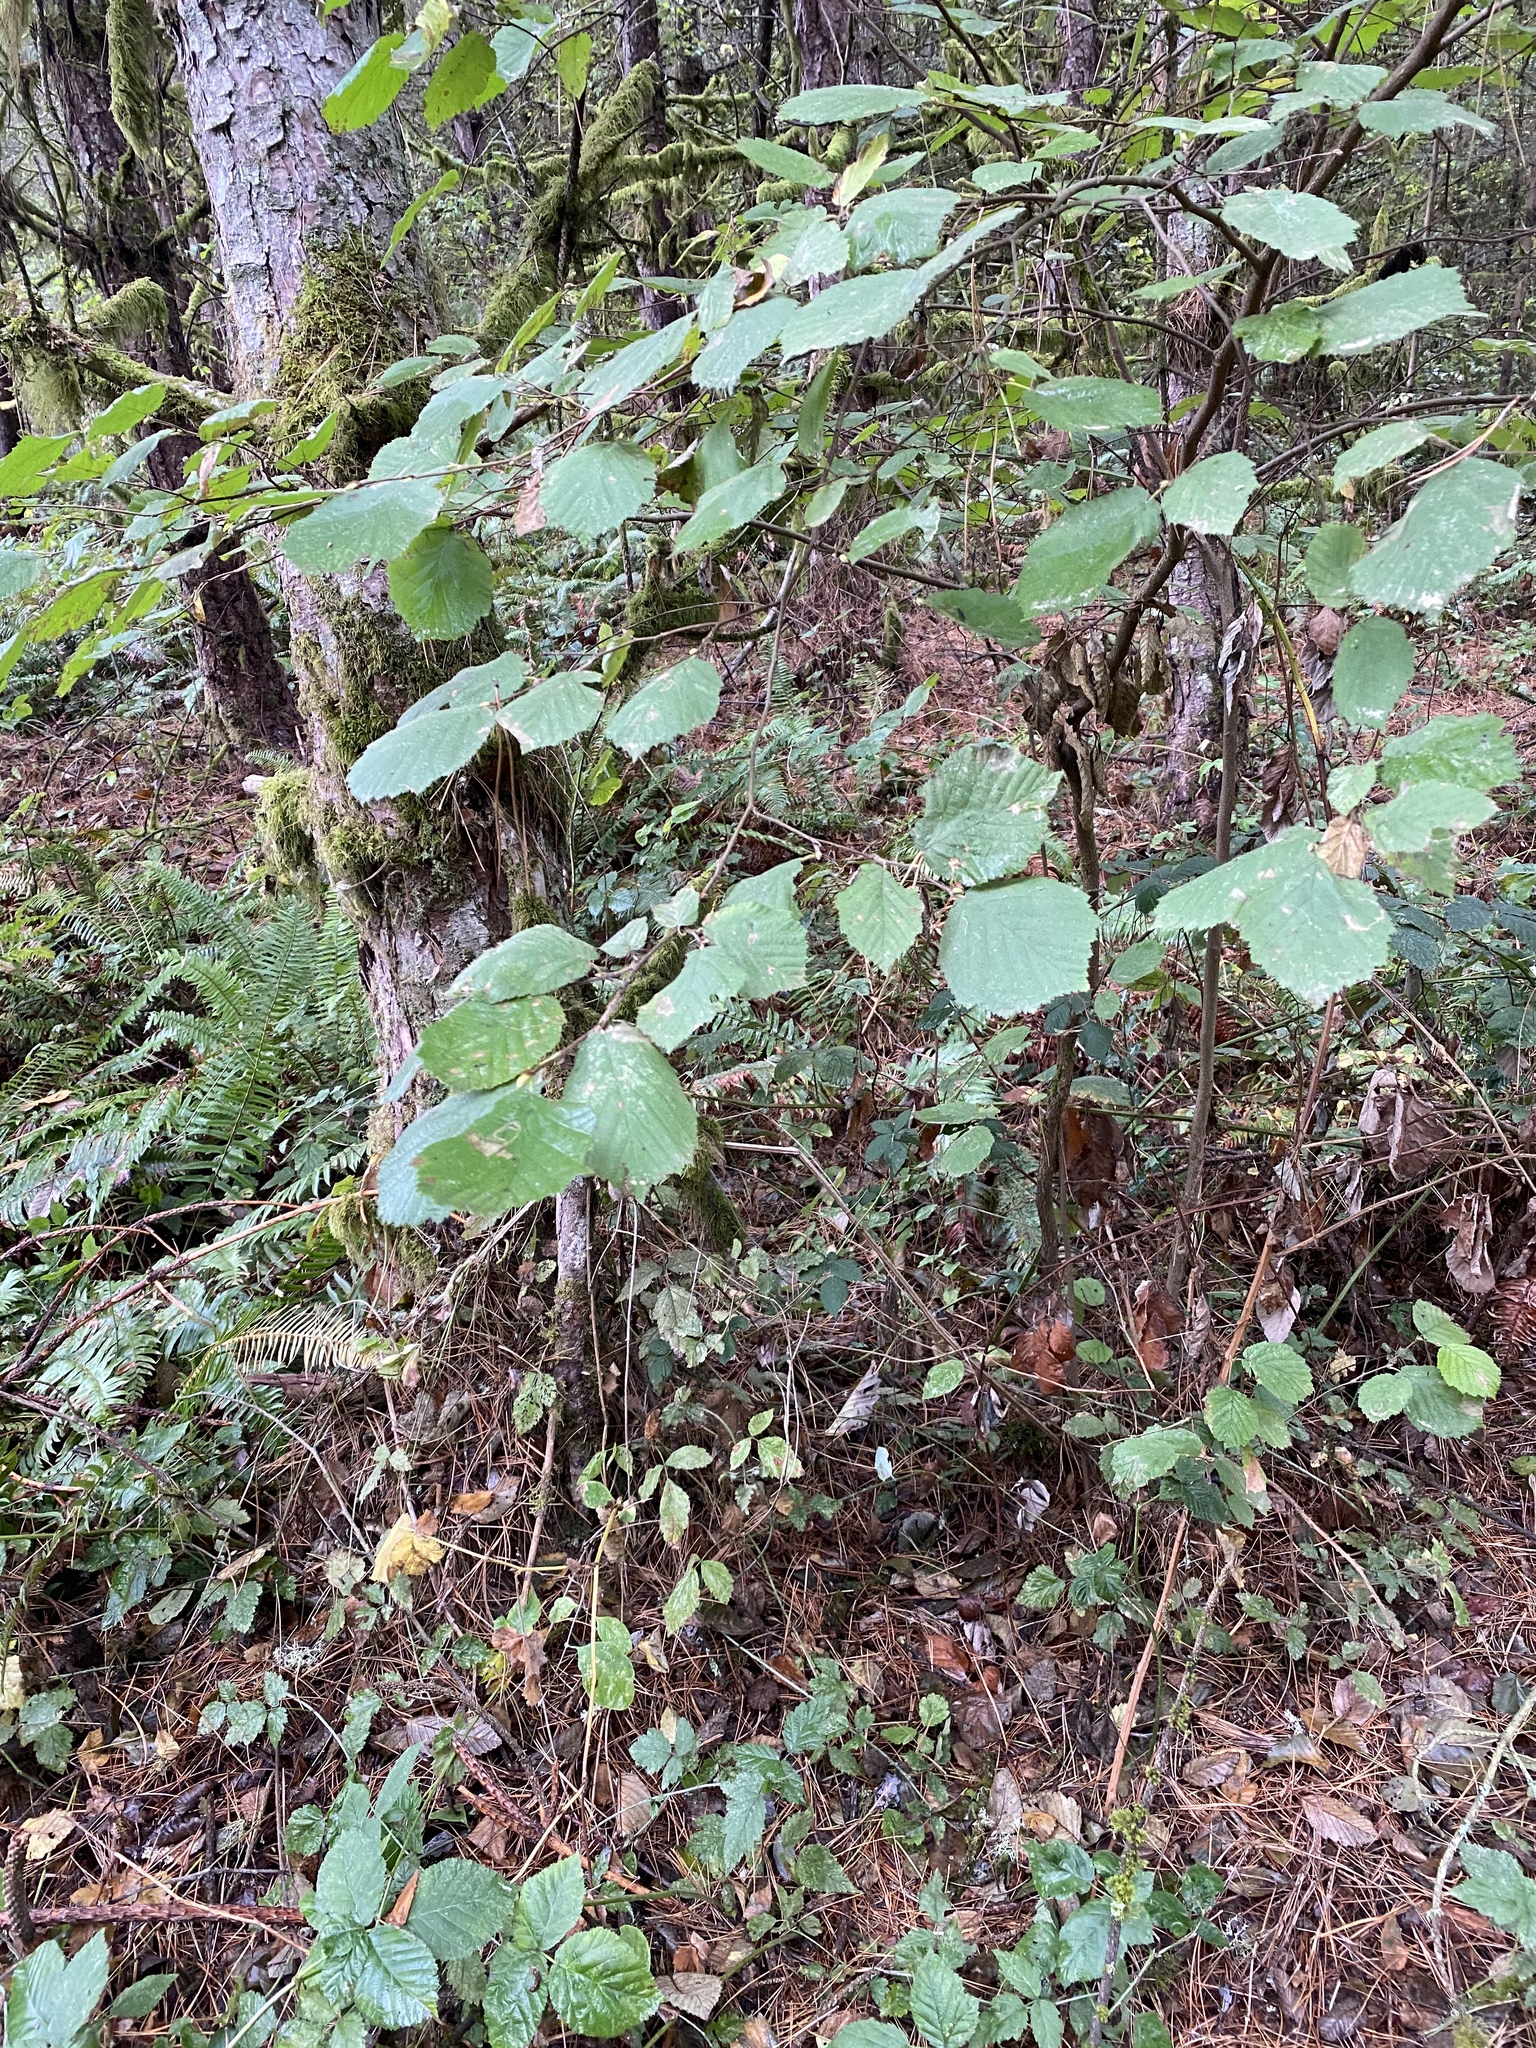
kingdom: Plantae
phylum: Tracheophyta
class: Magnoliopsida
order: Fagales
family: Betulaceae
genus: Corylus
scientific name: Corylus cornuta
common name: Beaked hazel
